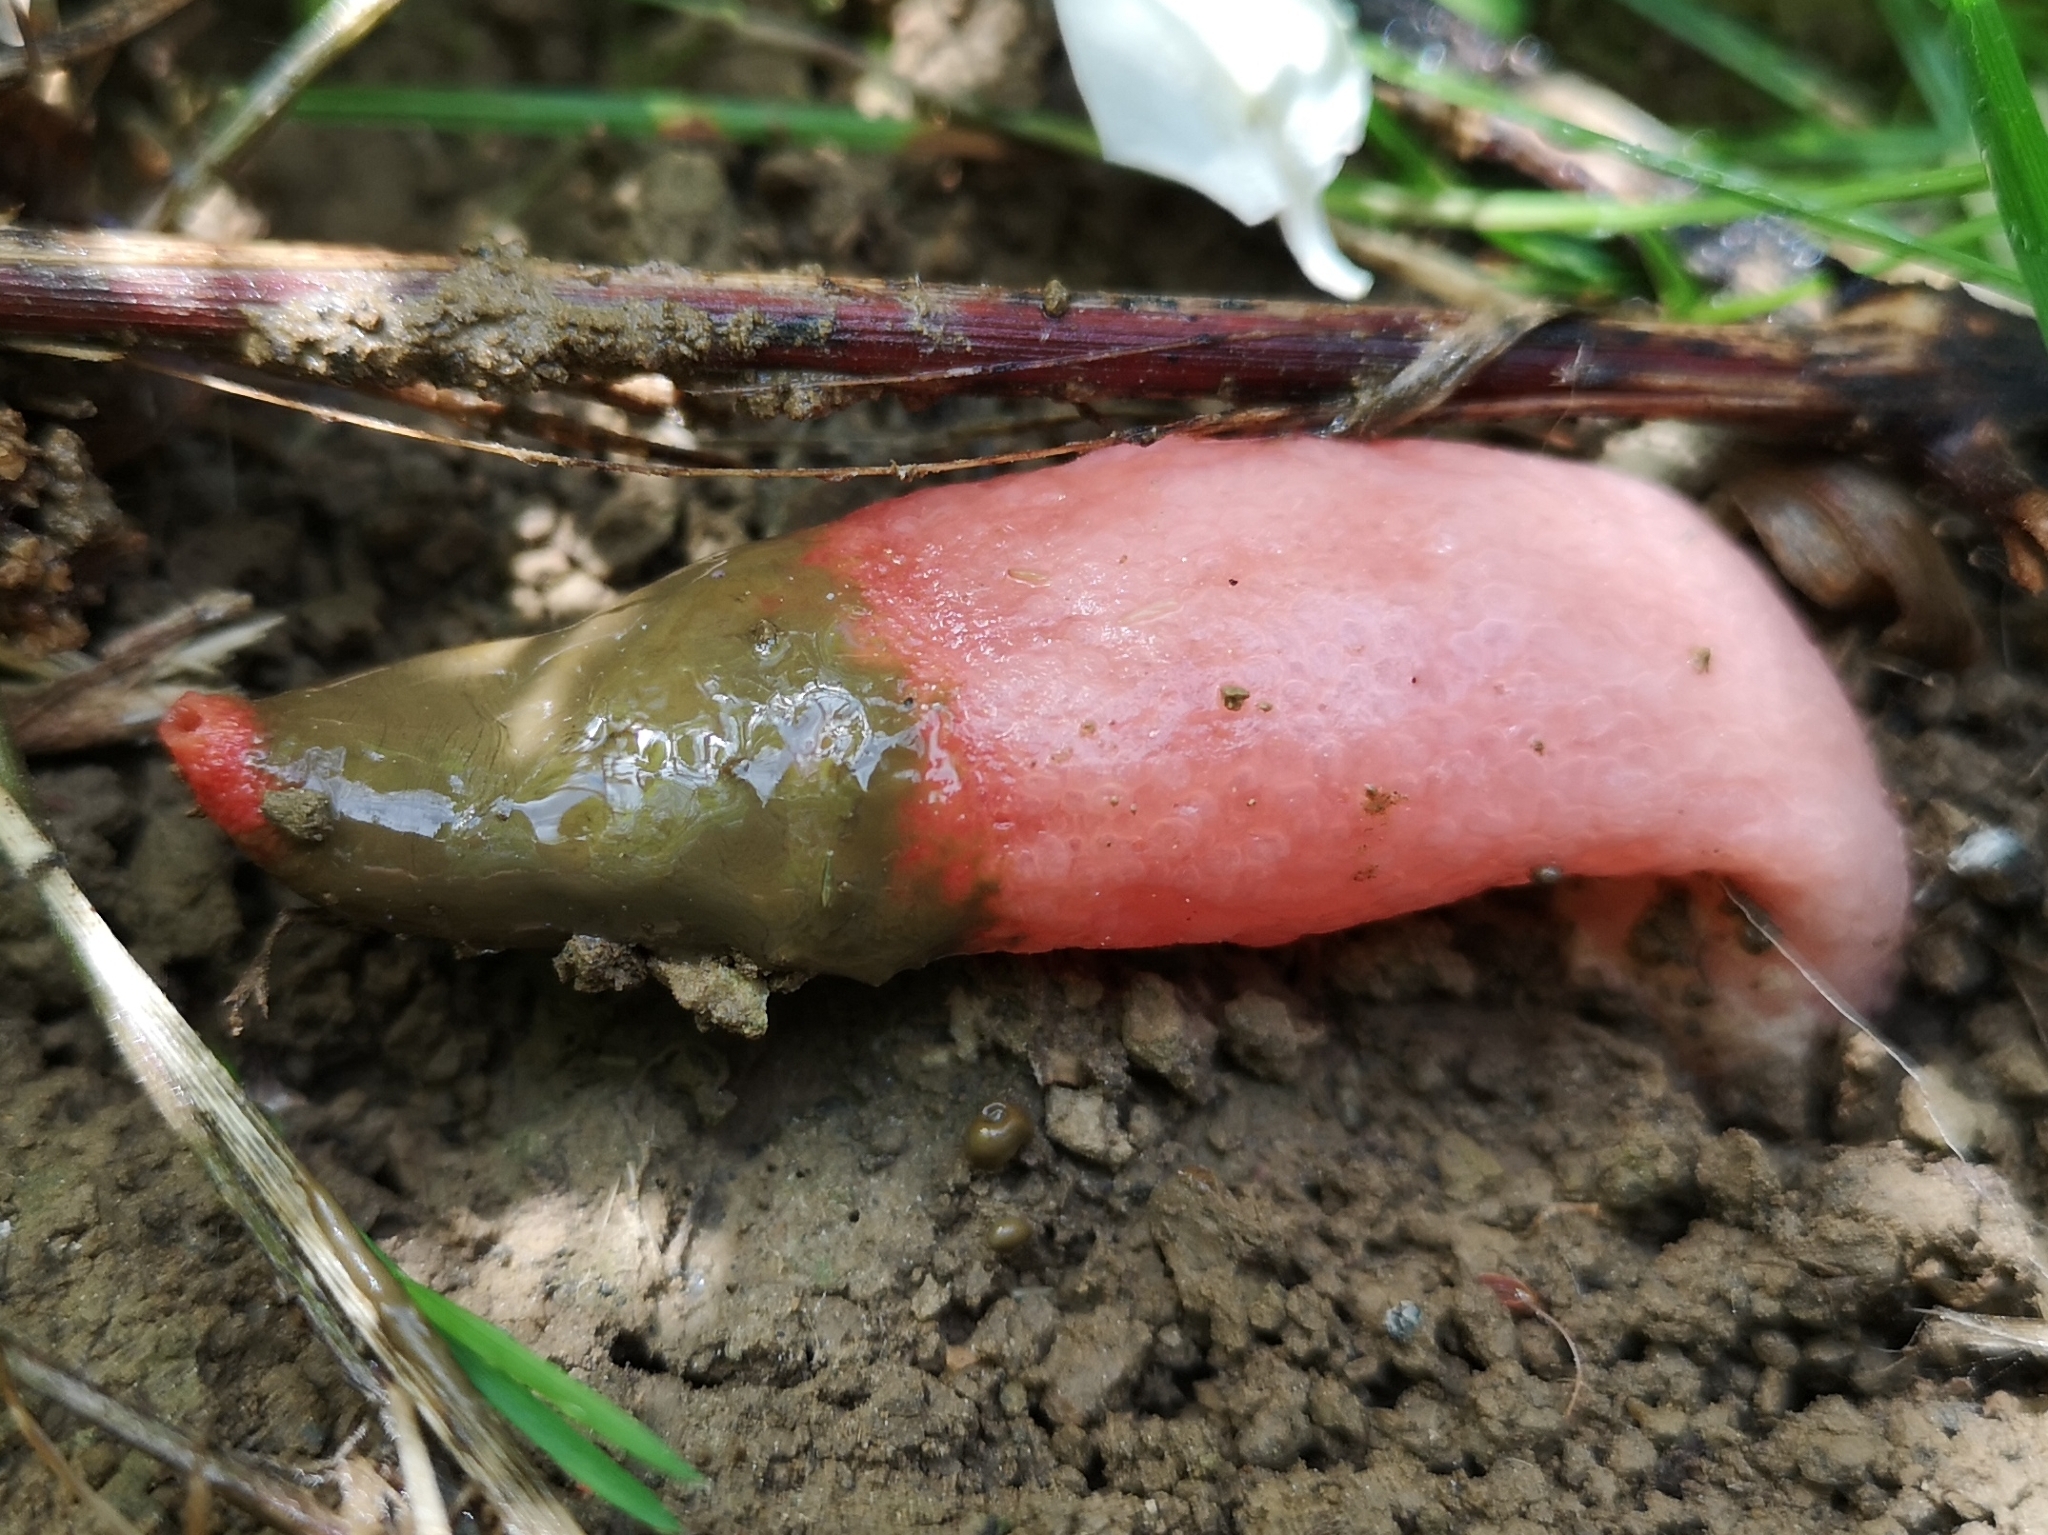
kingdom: Fungi
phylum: Basidiomycota
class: Agaricomycetes
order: Phallales
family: Phallaceae
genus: Mutinus
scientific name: Mutinus elegans
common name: Devil's dipstick
